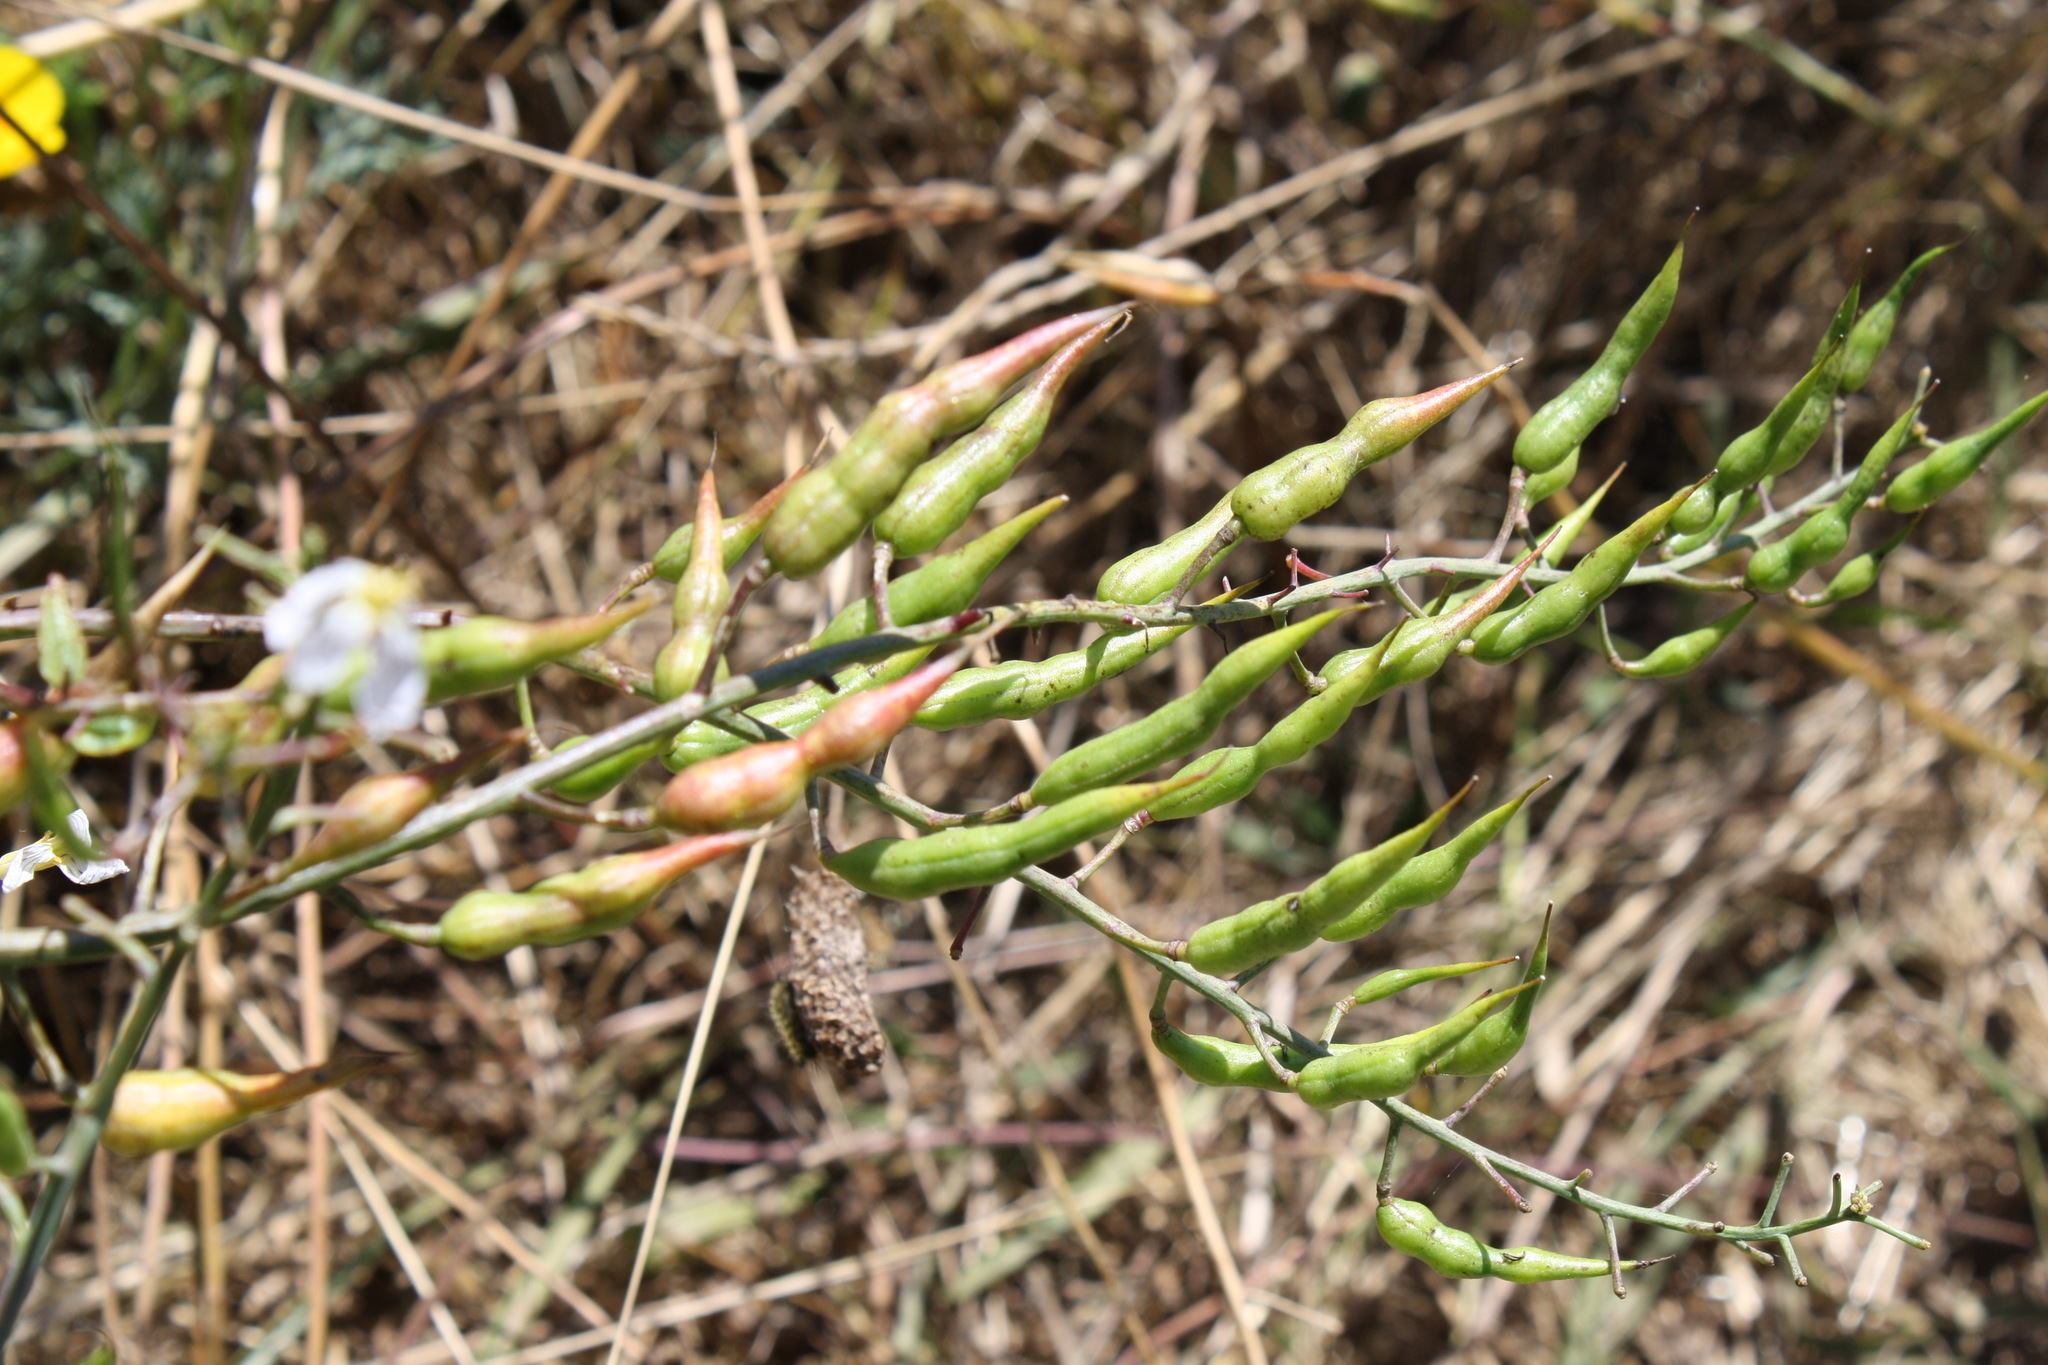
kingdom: Plantae
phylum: Tracheophyta
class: Magnoliopsida
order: Brassicales
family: Brassicaceae
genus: Raphanus
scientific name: Raphanus sativus
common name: Cultivated radish
